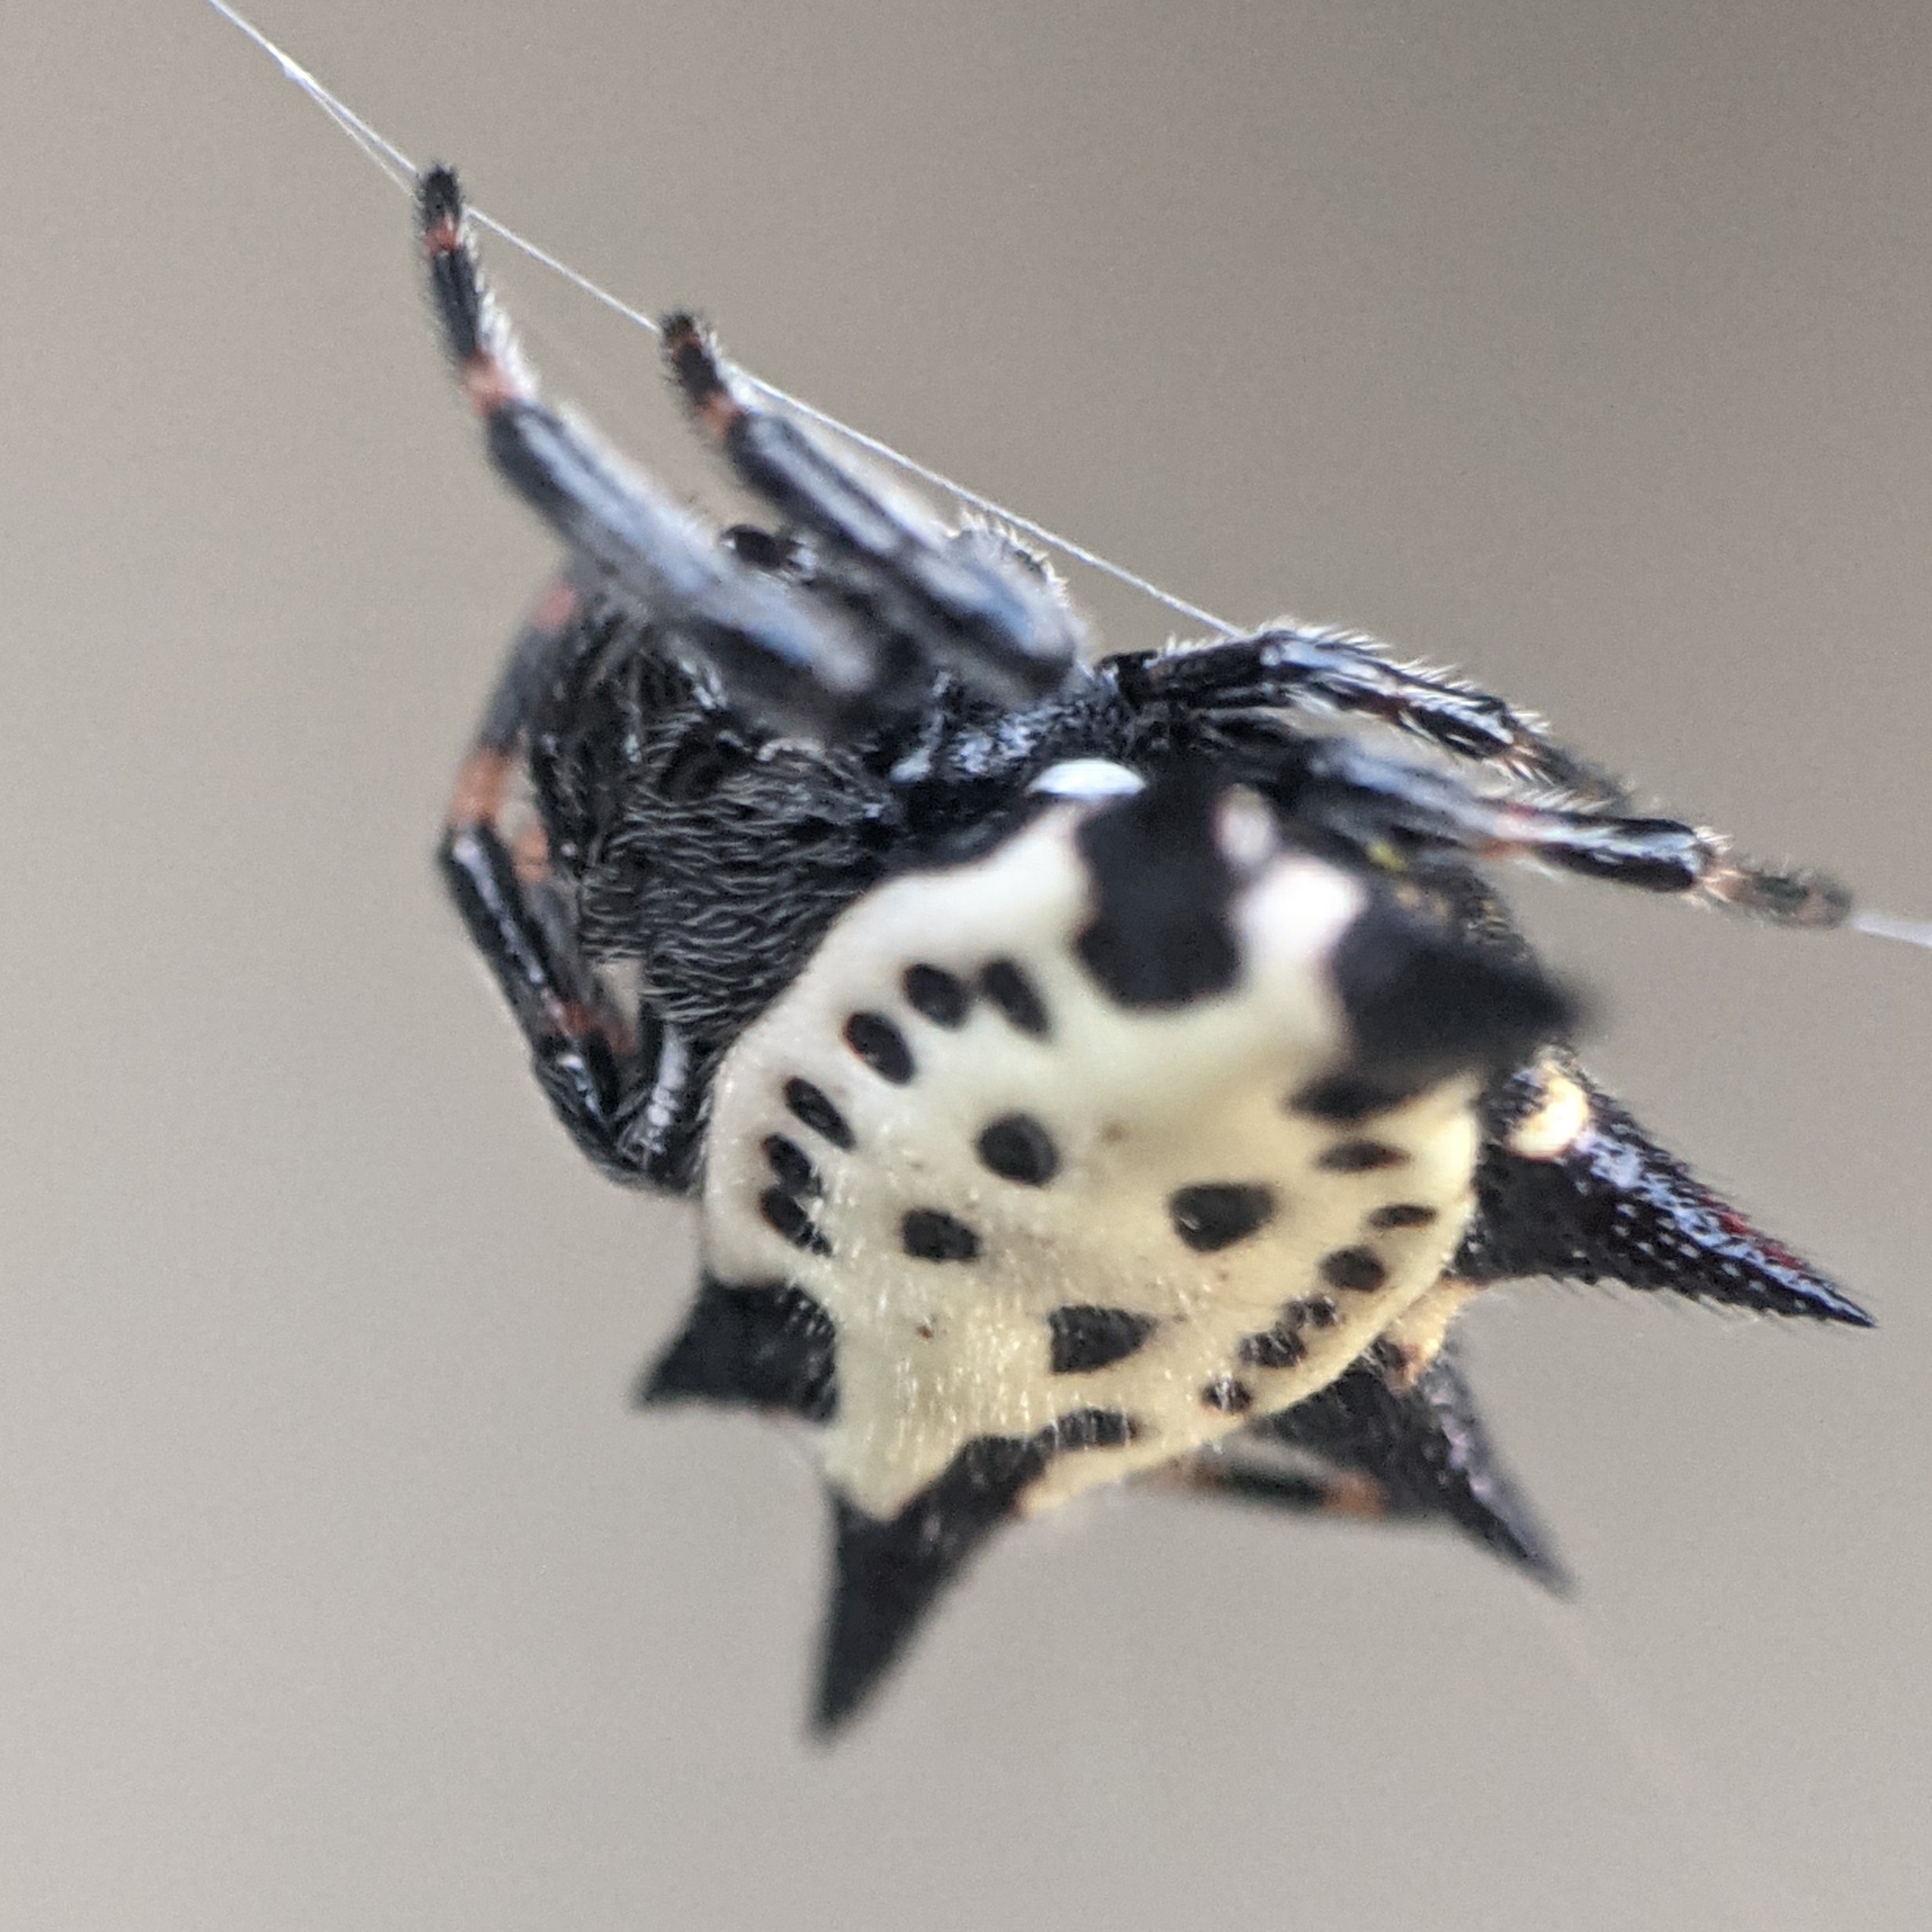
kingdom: Animalia
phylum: Arthropoda
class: Arachnida
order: Araneae
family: Araneidae
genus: Gasteracantha
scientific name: Gasteracantha cancriformis
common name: Orb weavers
